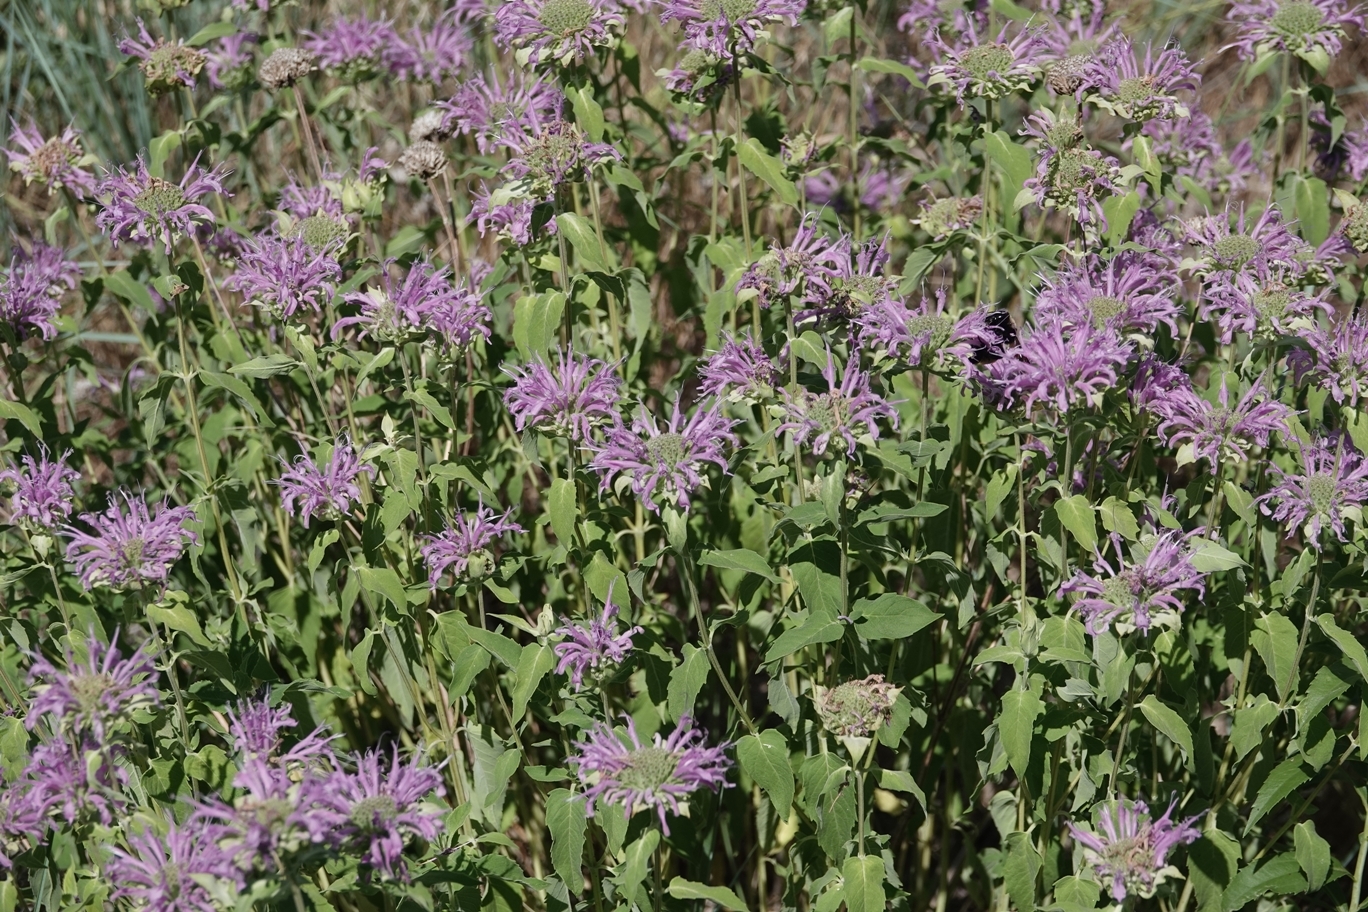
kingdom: Plantae
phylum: Tracheophyta
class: Magnoliopsida
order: Lamiales
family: Lamiaceae
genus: Monarda
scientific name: Monarda fistulosa
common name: Purple beebalm
